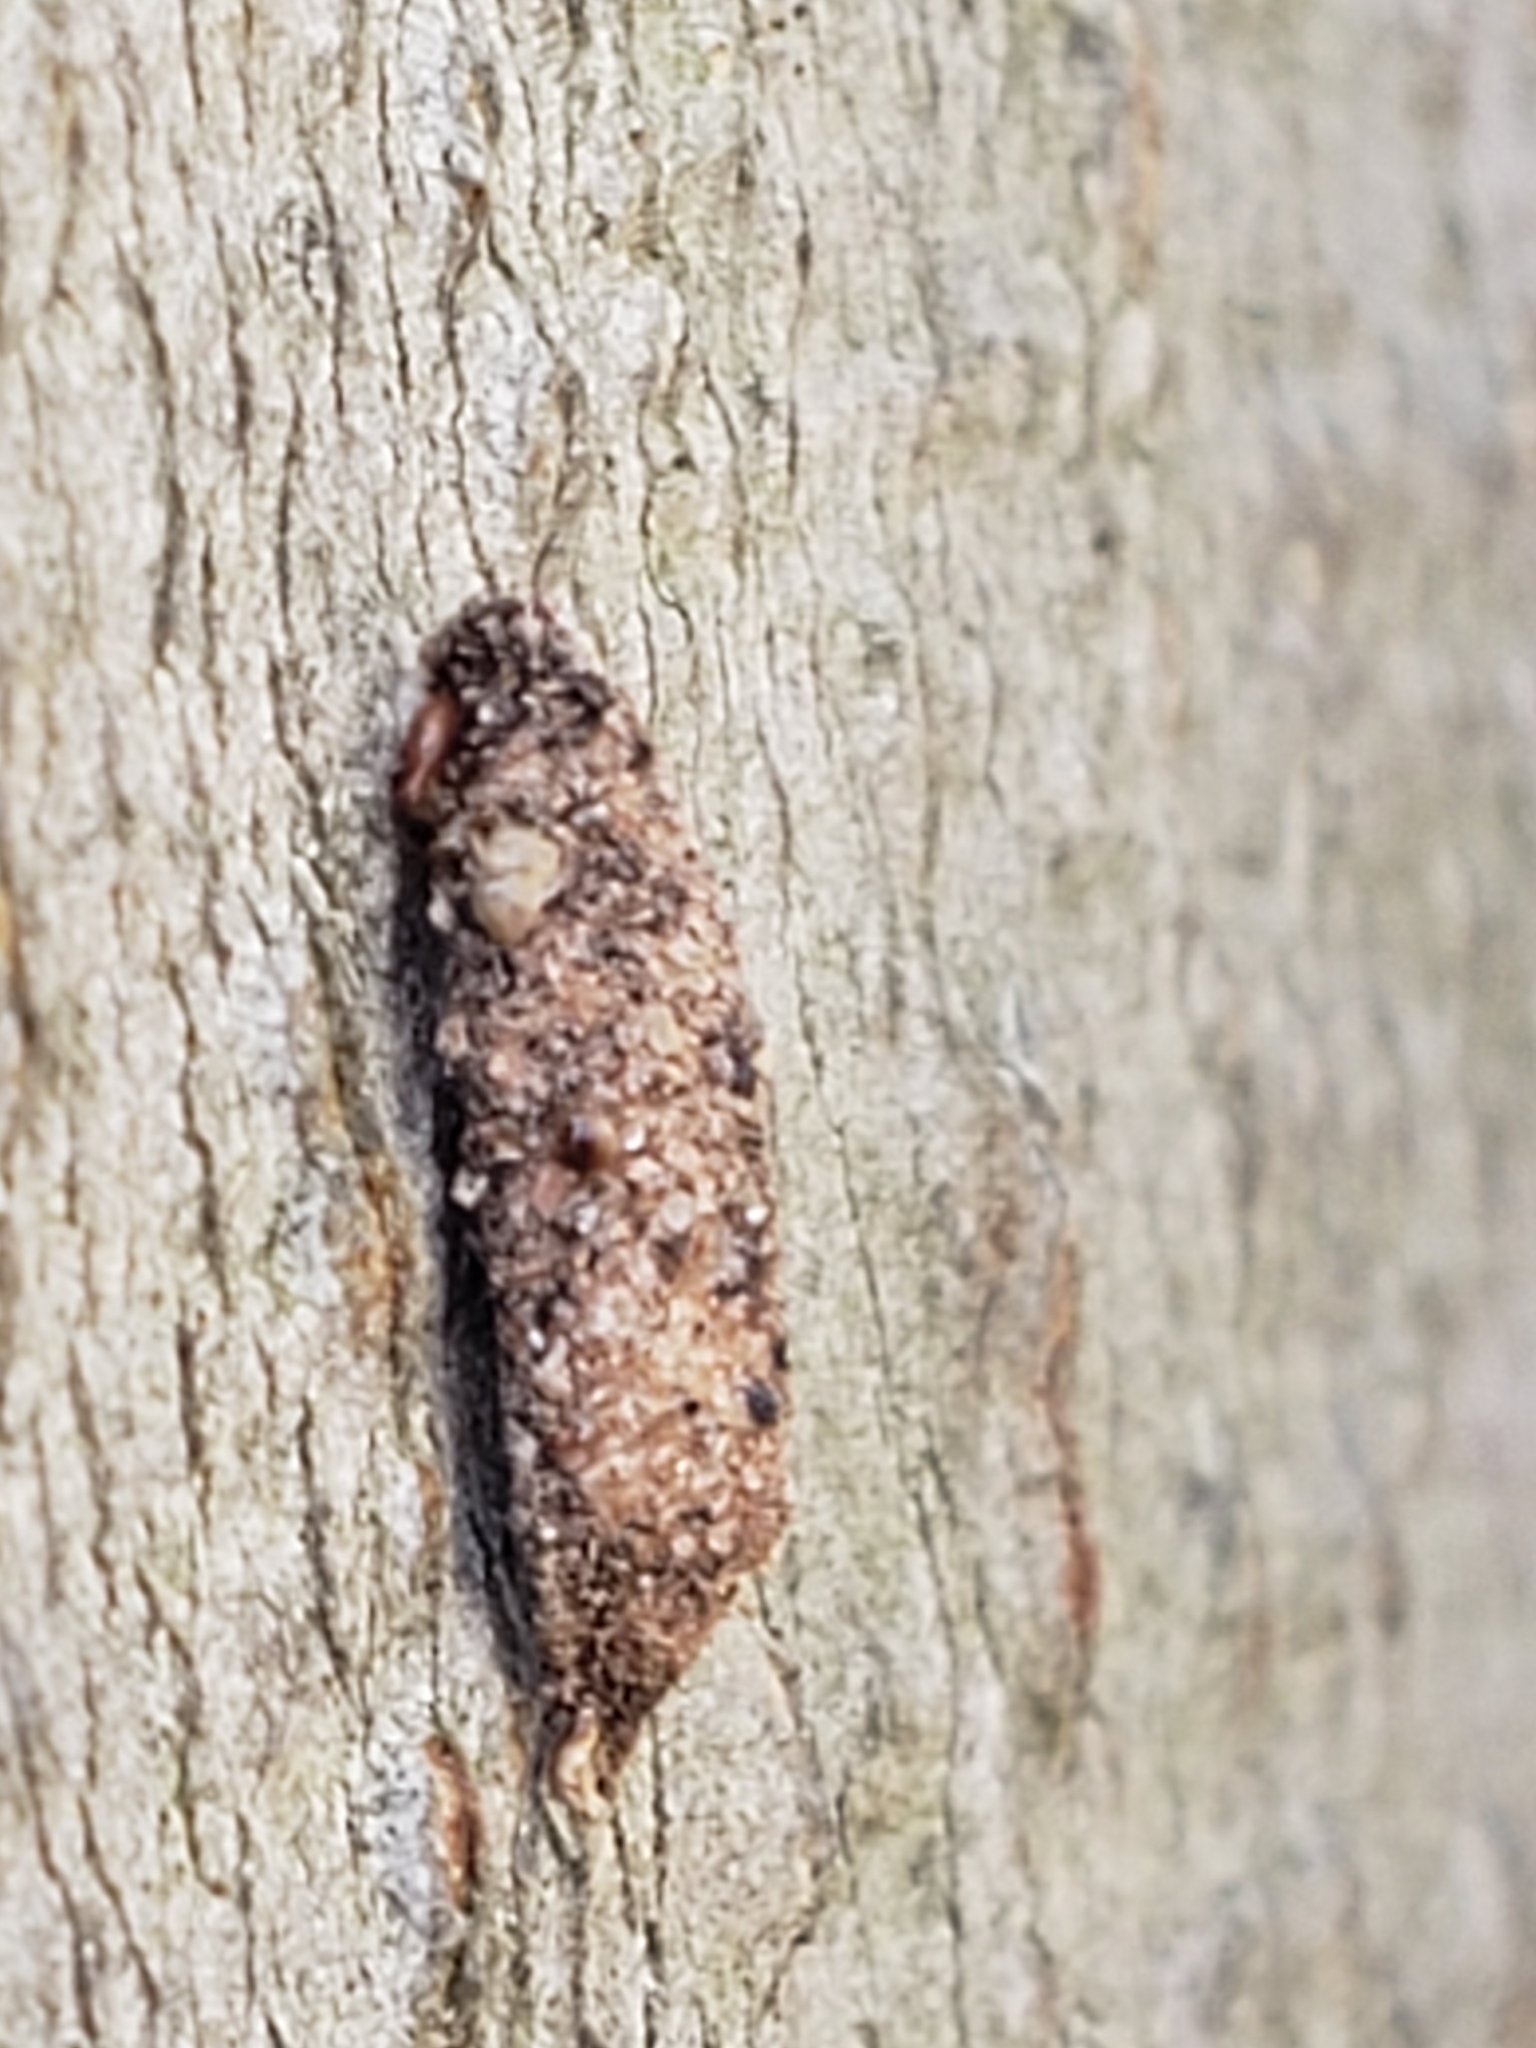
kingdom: Animalia
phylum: Arthropoda
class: Insecta
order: Lepidoptera
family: Psychidae
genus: Dahlica
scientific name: Dahlica triquetrella
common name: Narrow lichen case-bearer
